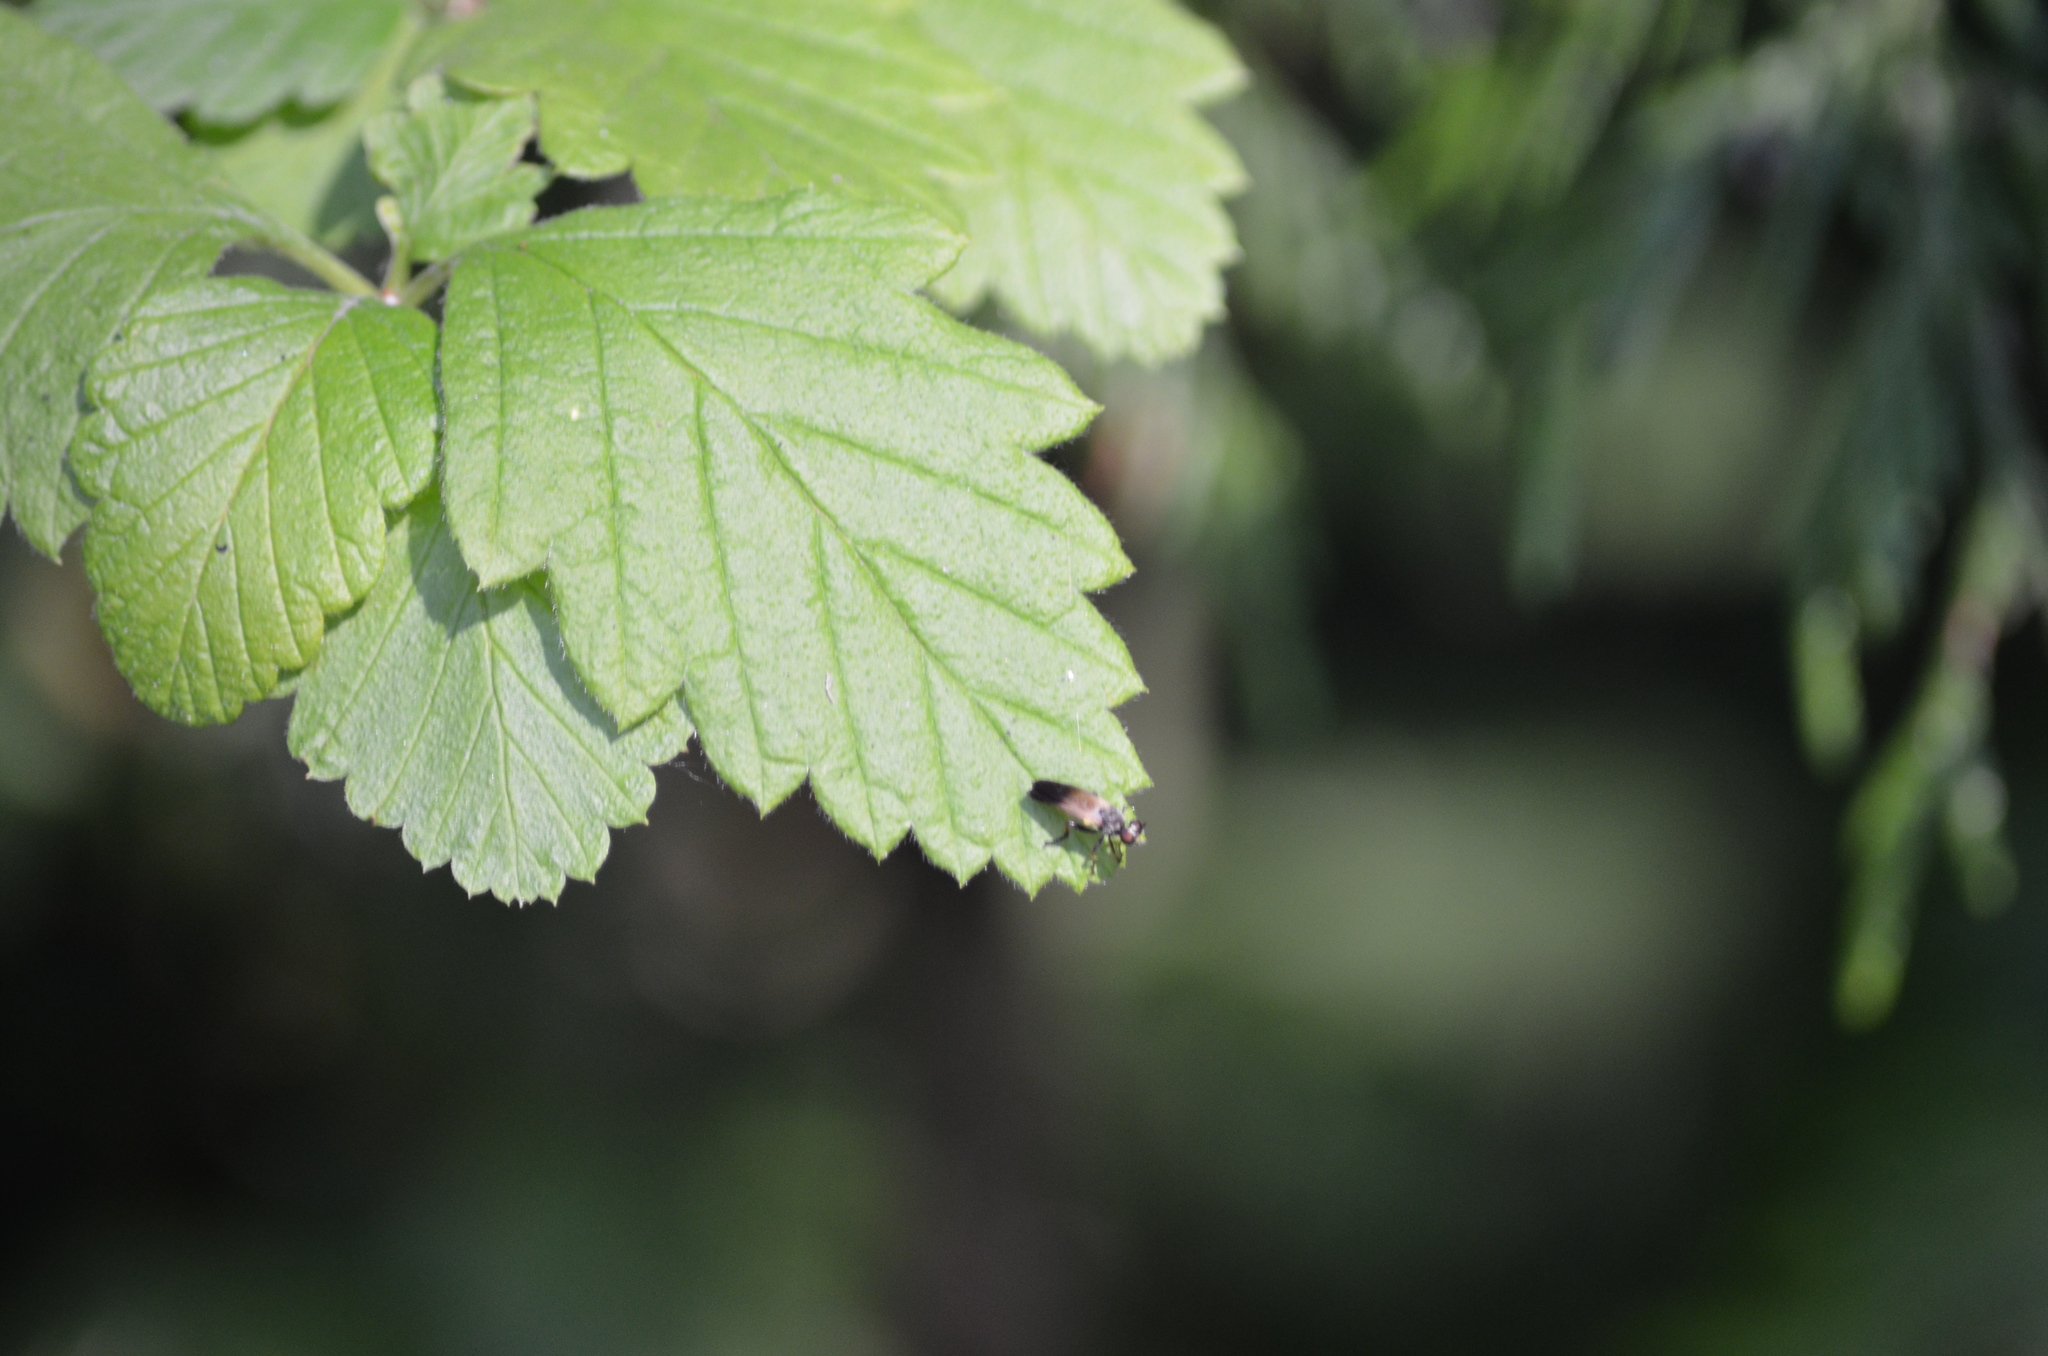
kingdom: Animalia
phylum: Arthropoda
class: Insecta
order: Diptera
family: Asilidae
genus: Eudioctria
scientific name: Eudioctria sackeni
